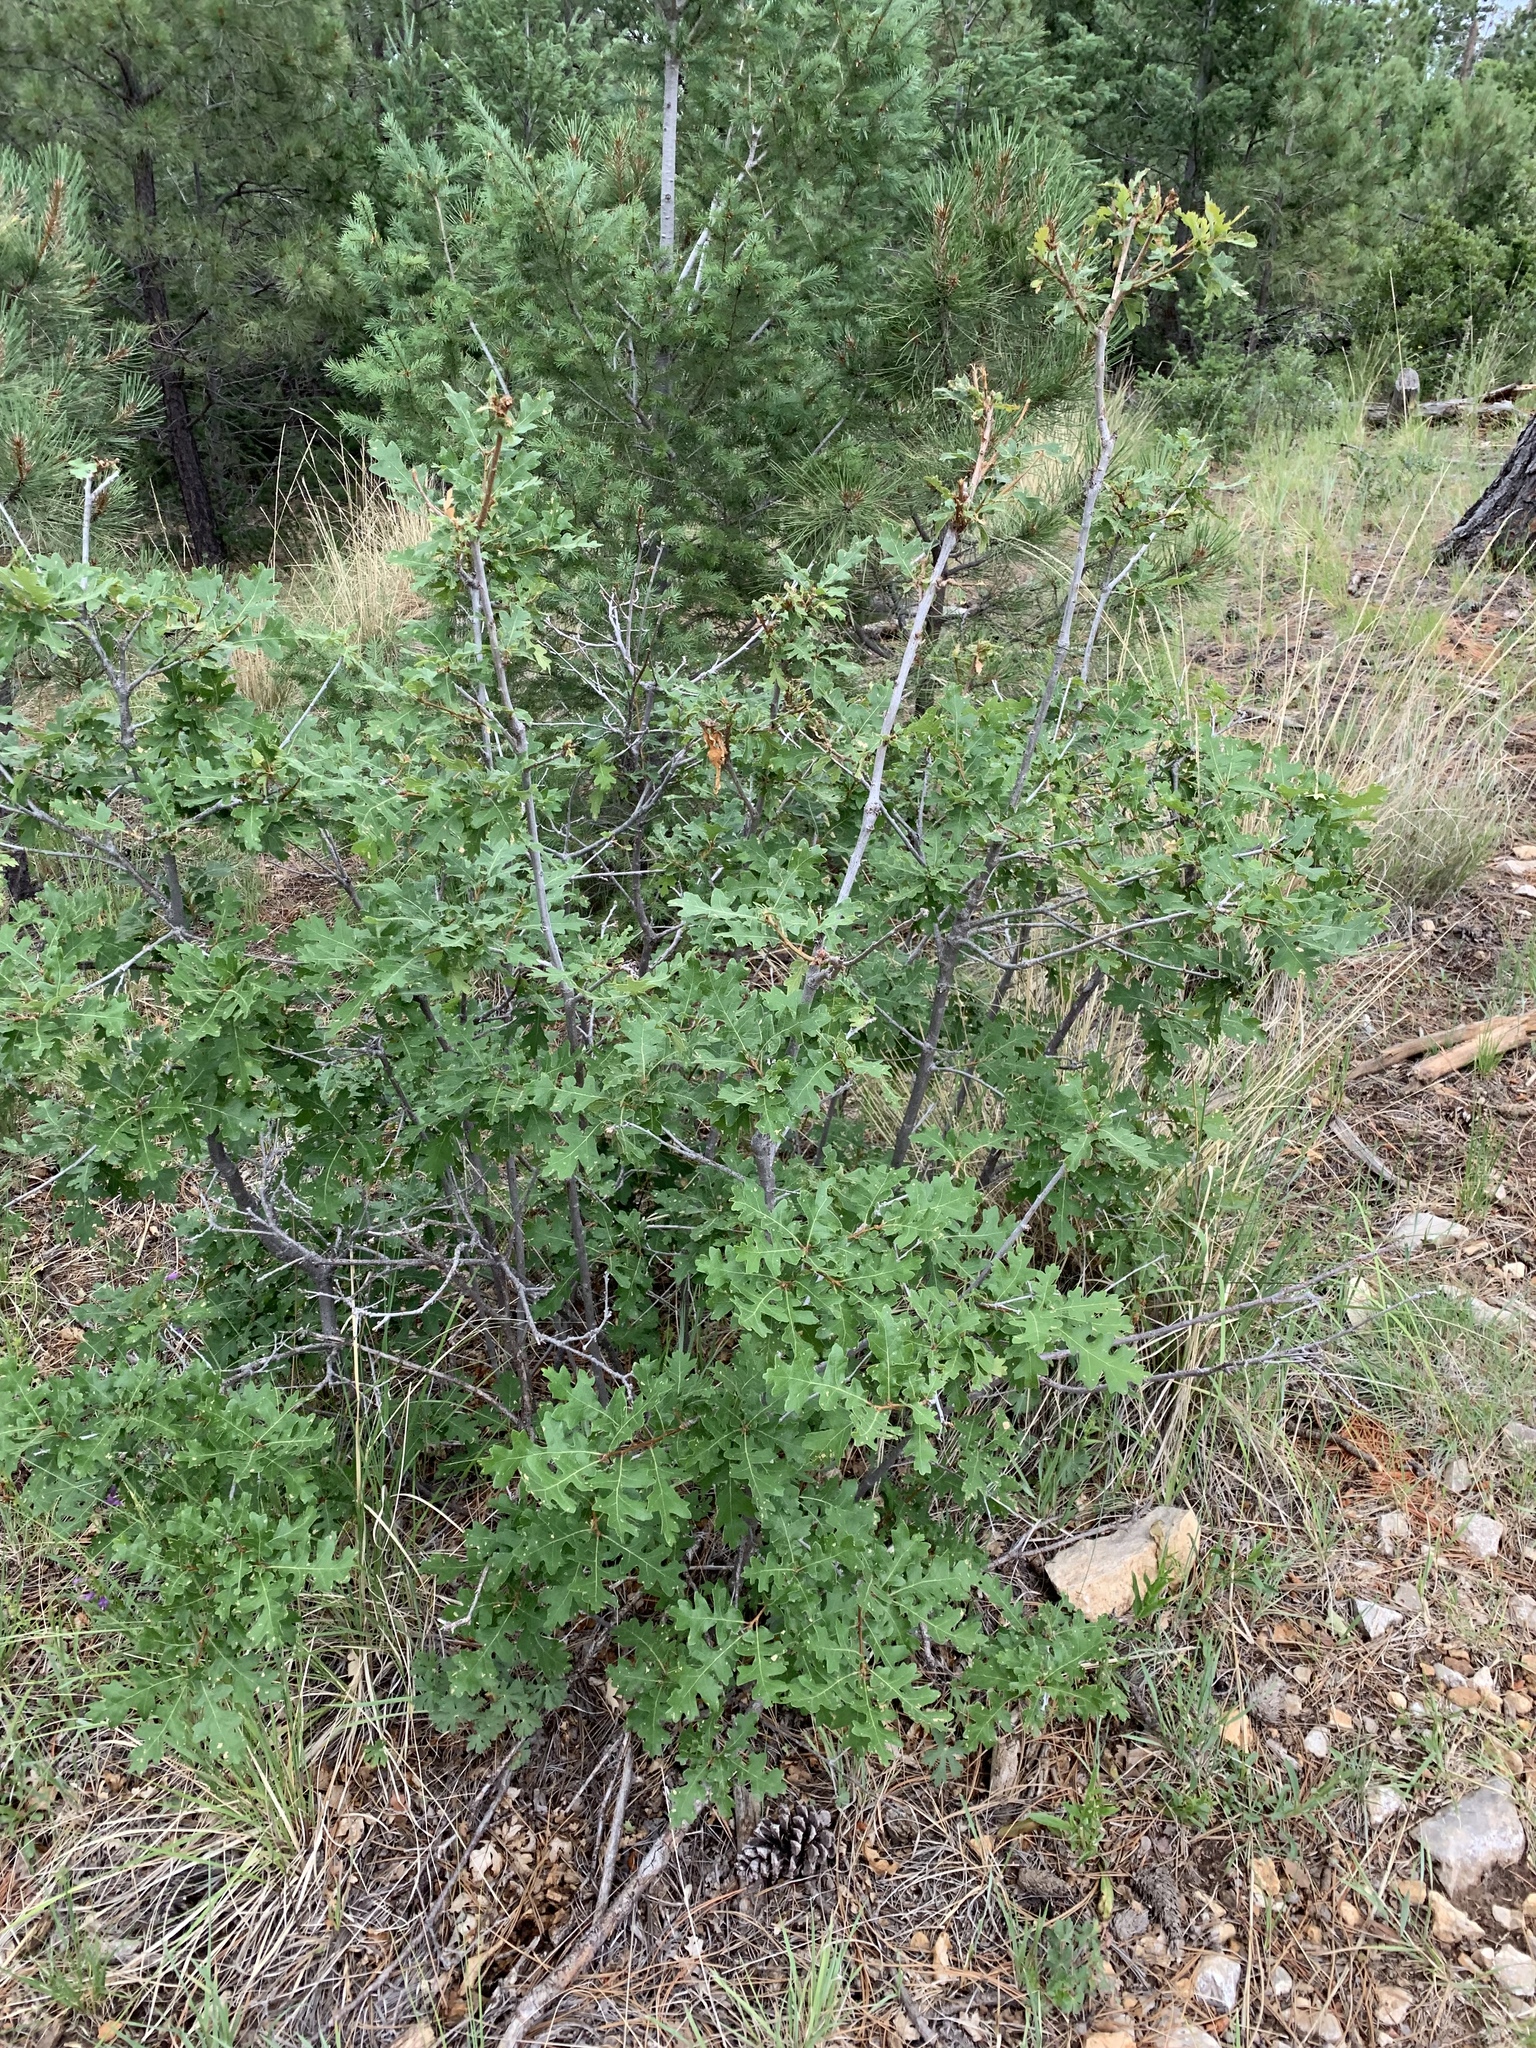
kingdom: Plantae
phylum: Tracheophyta
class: Magnoliopsida
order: Fagales
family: Fagaceae
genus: Quercus
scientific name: Quercus gambelii
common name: Gambel oak
